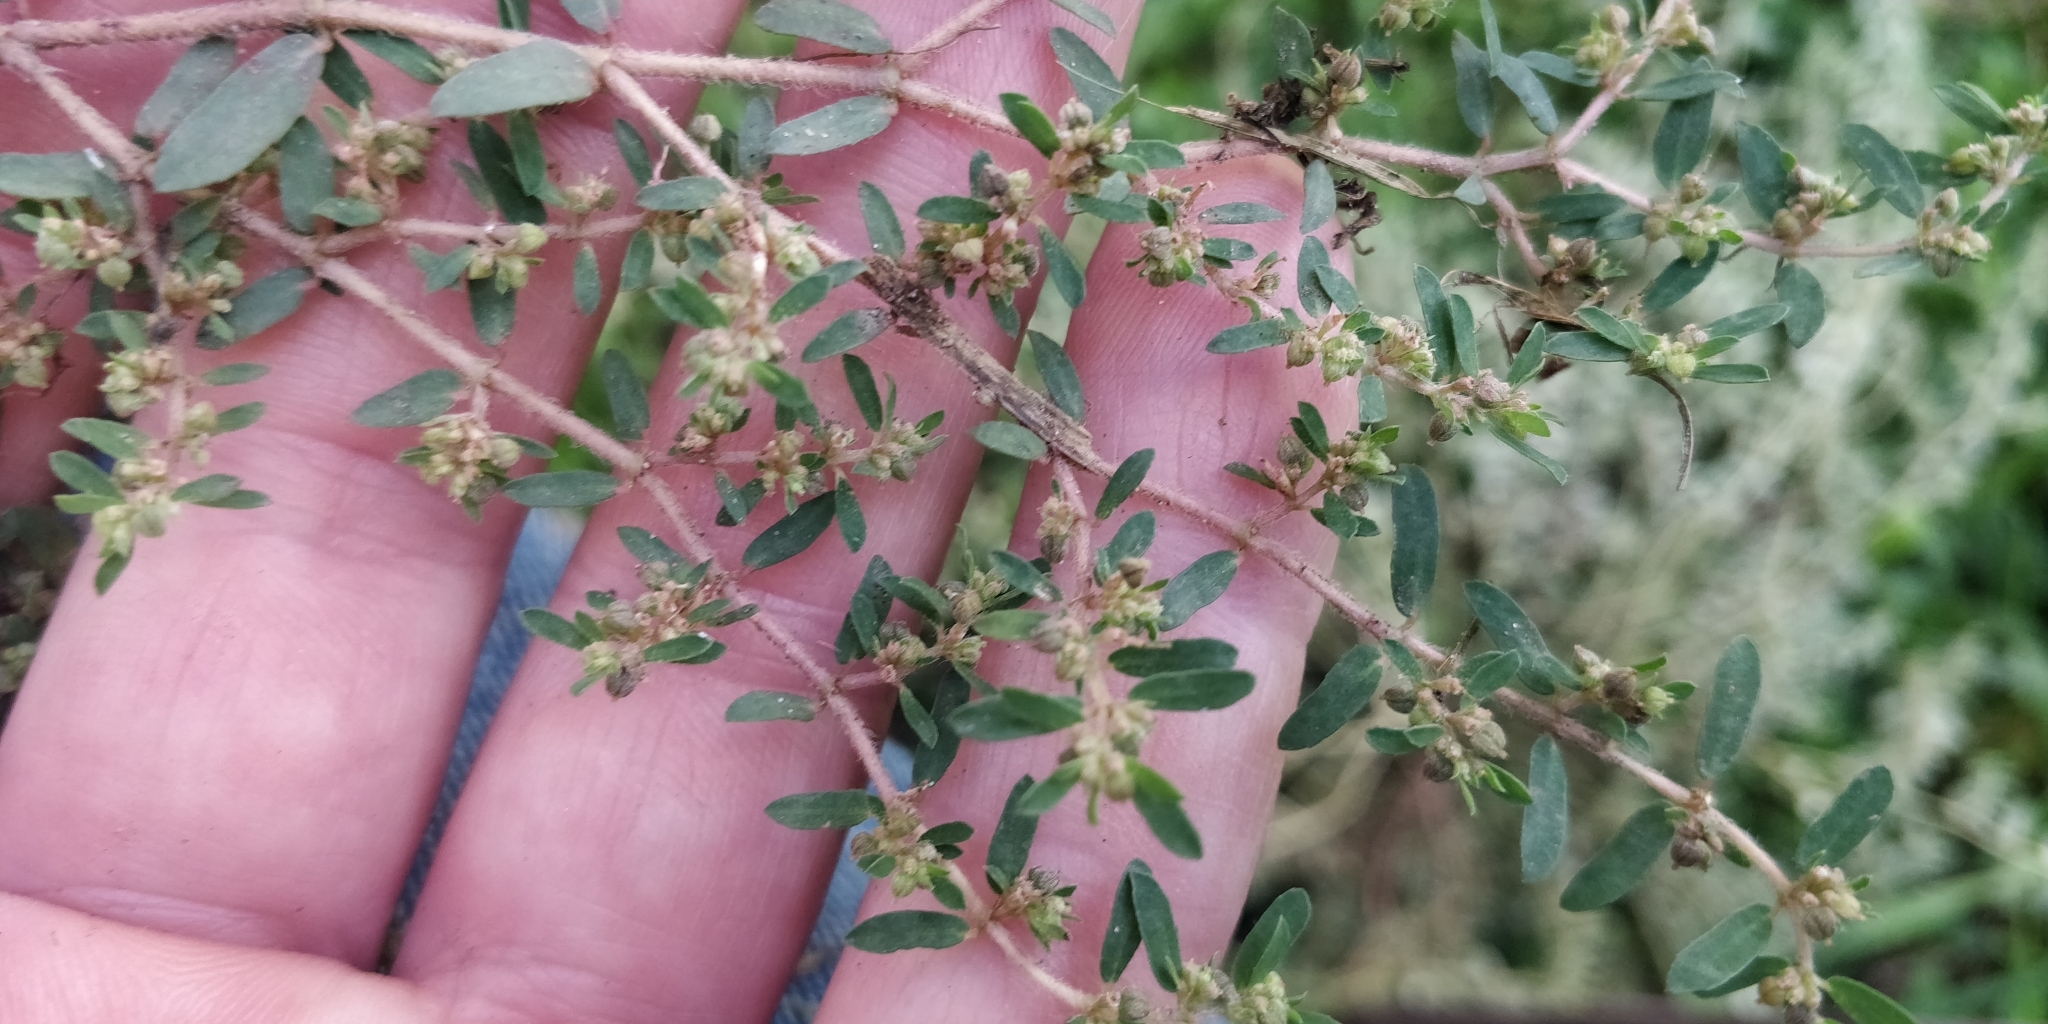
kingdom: Plantae
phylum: Tracheophyta
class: Magnoliopsida
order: Malpighiales
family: Euphorbiaceae
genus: Euphorbia
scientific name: Euphorbia maculata
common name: Spotted spurge
